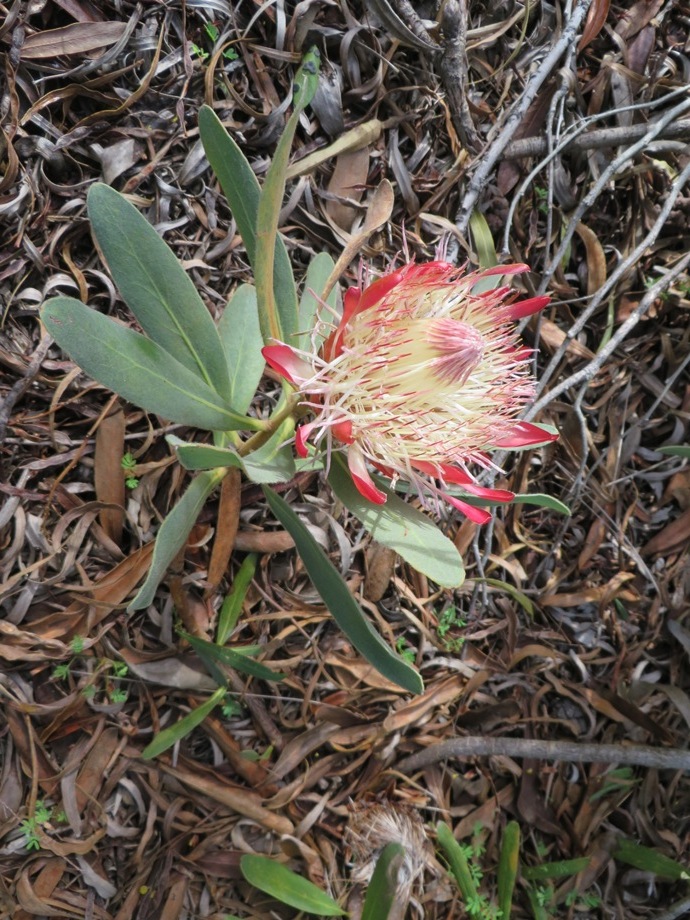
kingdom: Plantae
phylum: Tracheophyta
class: Magnoliopsida
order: Proteales
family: Proteaceae
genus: Protea
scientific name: Protea susannae
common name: Foetid-leaf sugarbush
